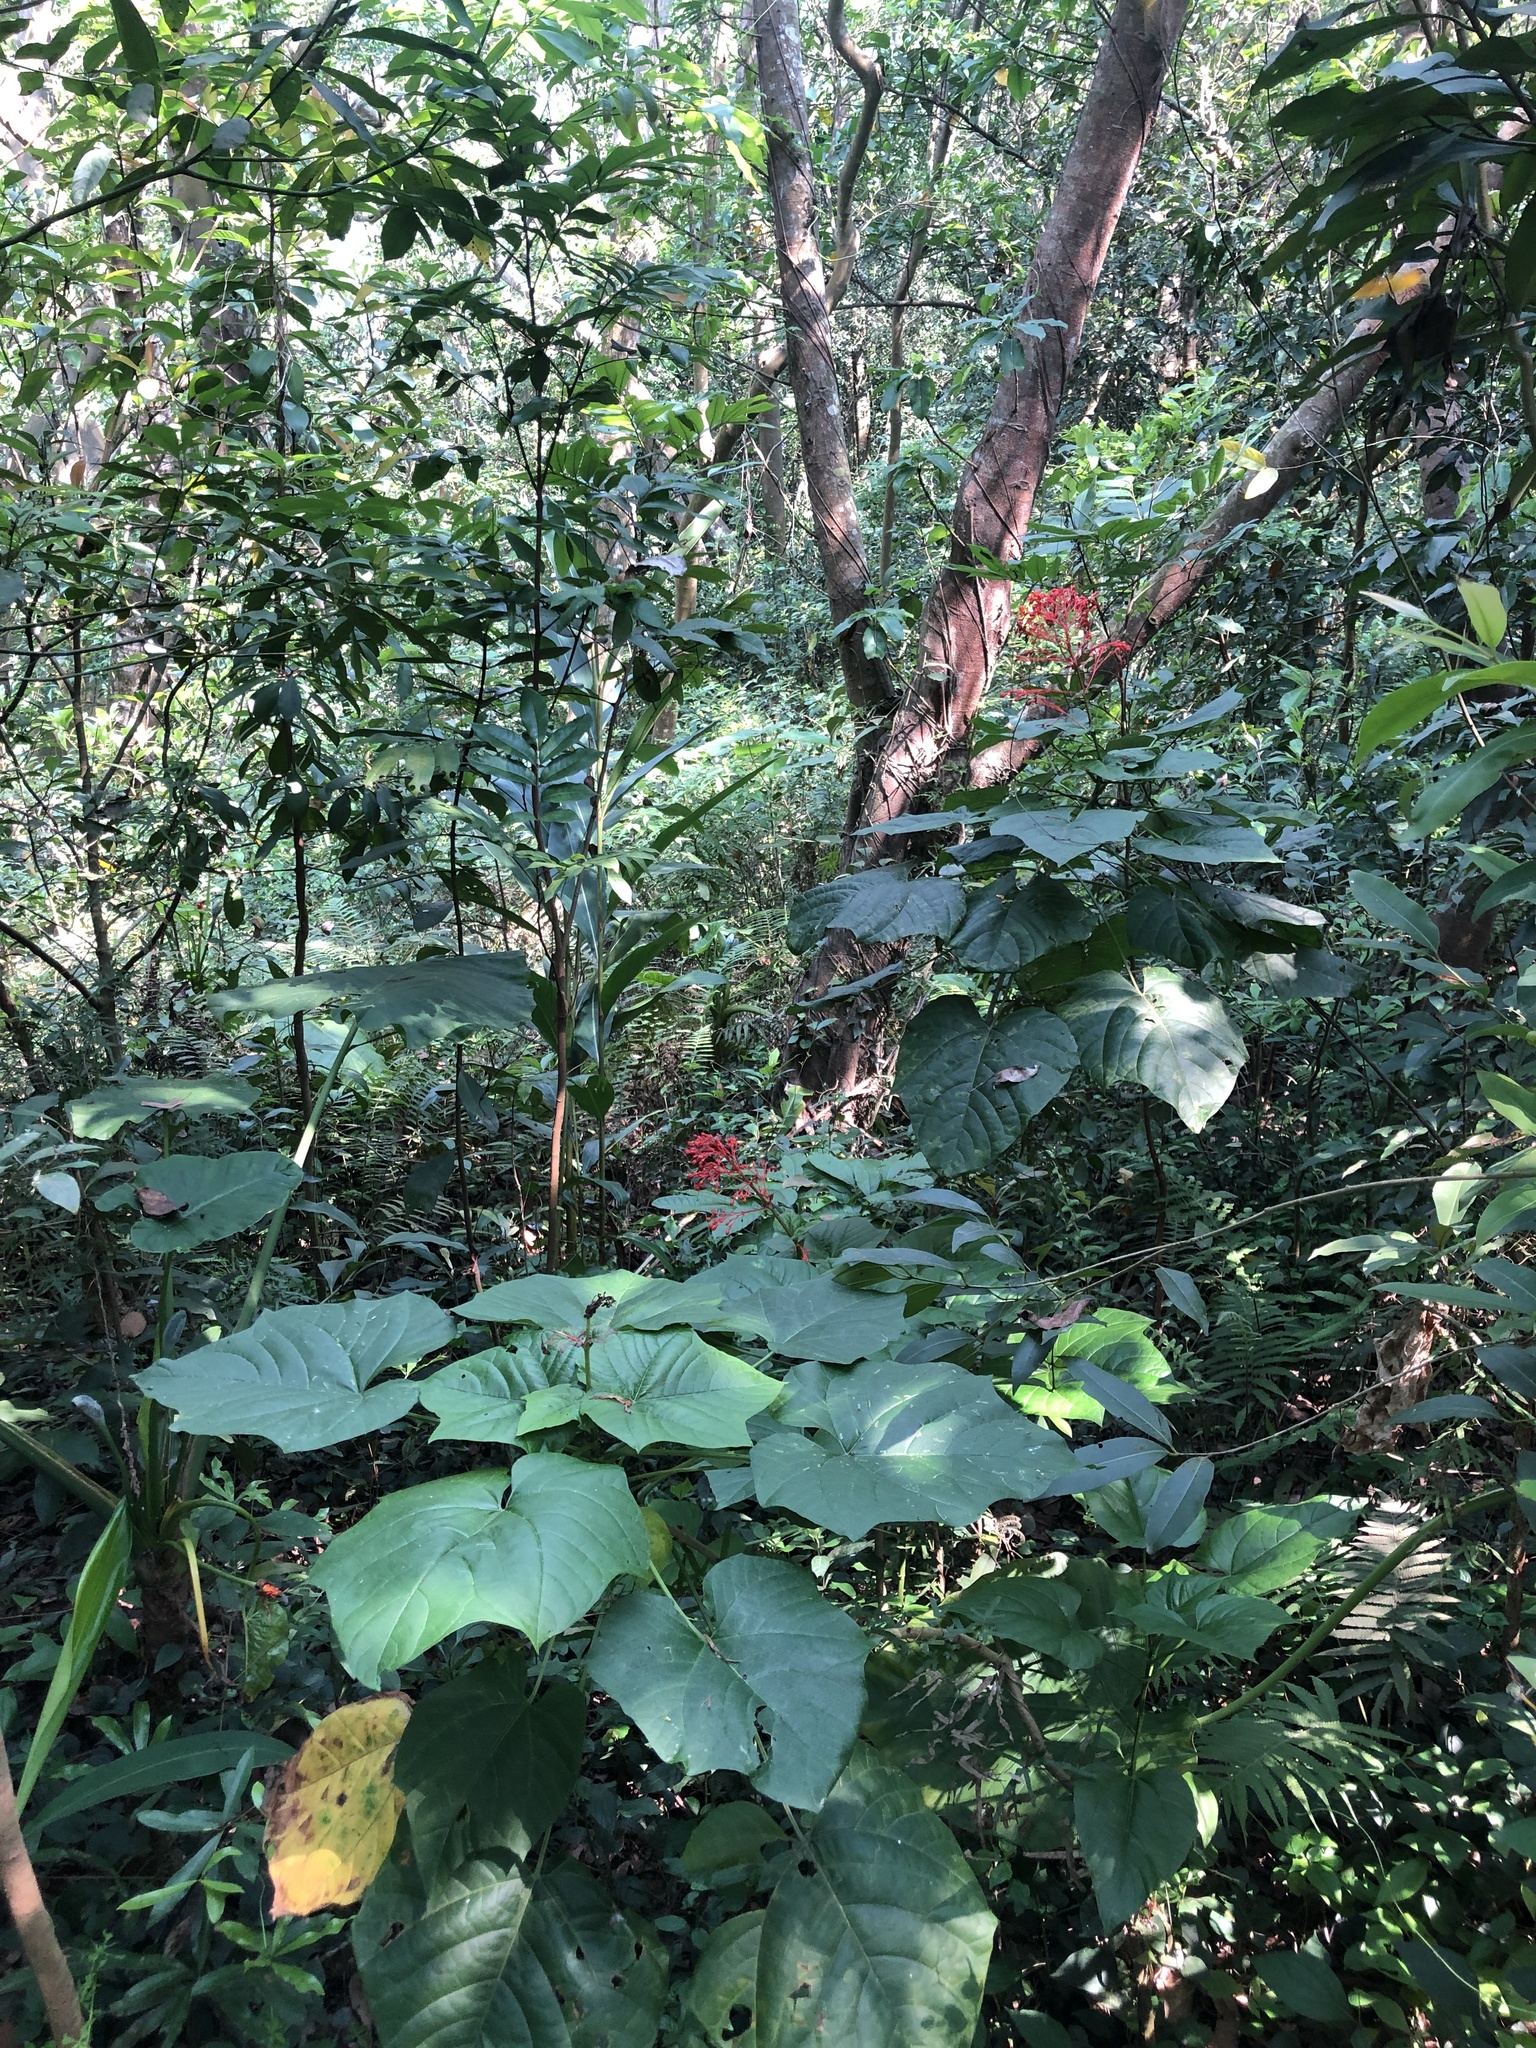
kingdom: Plantae
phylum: Tracheophyta
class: Magnoliopsida
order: Lamiales
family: Lamiaceae
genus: Clerodendrum
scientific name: Clerodendrum japonicum
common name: Japanese glorybower
